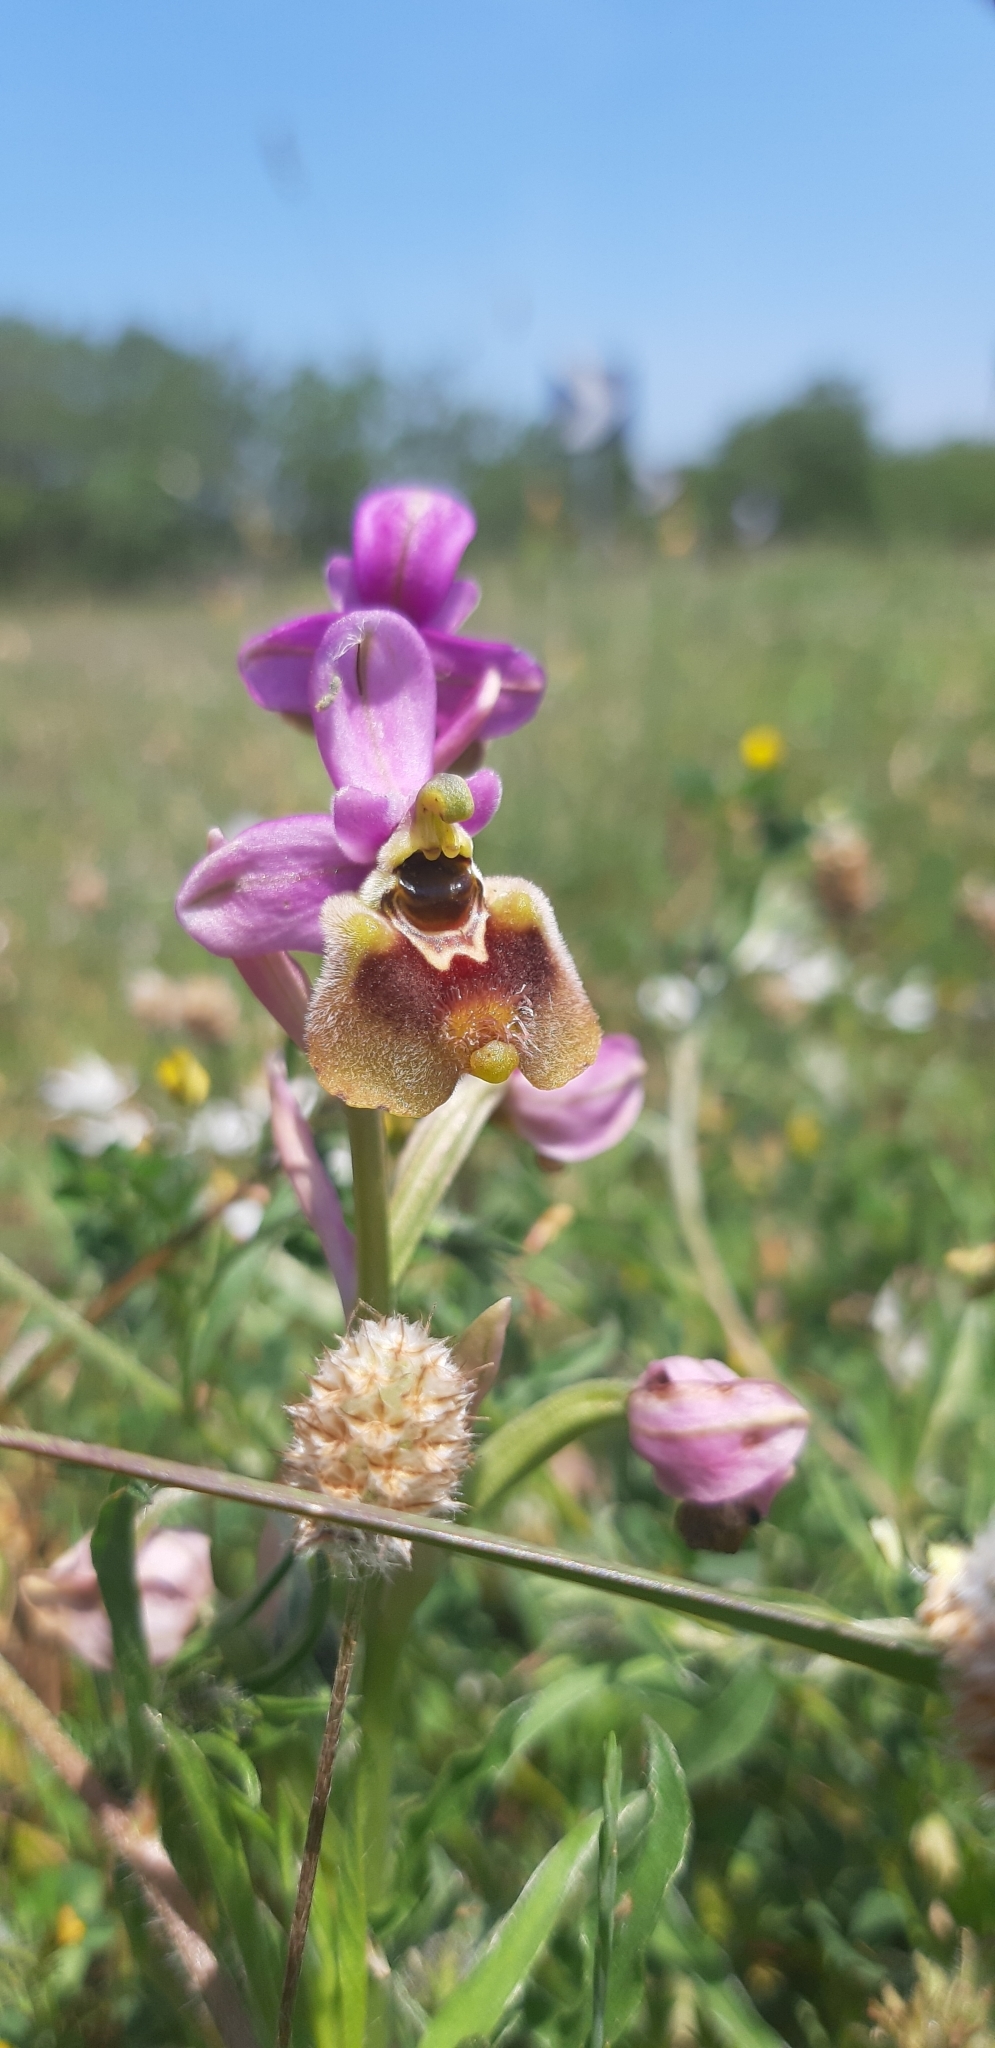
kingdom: Plantae
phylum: Tracheophyta
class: Liliopsida
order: Asparagales
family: Orchidaceae
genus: Ophrys
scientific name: Ophrys tenthredinifera
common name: Sawfly orchid
